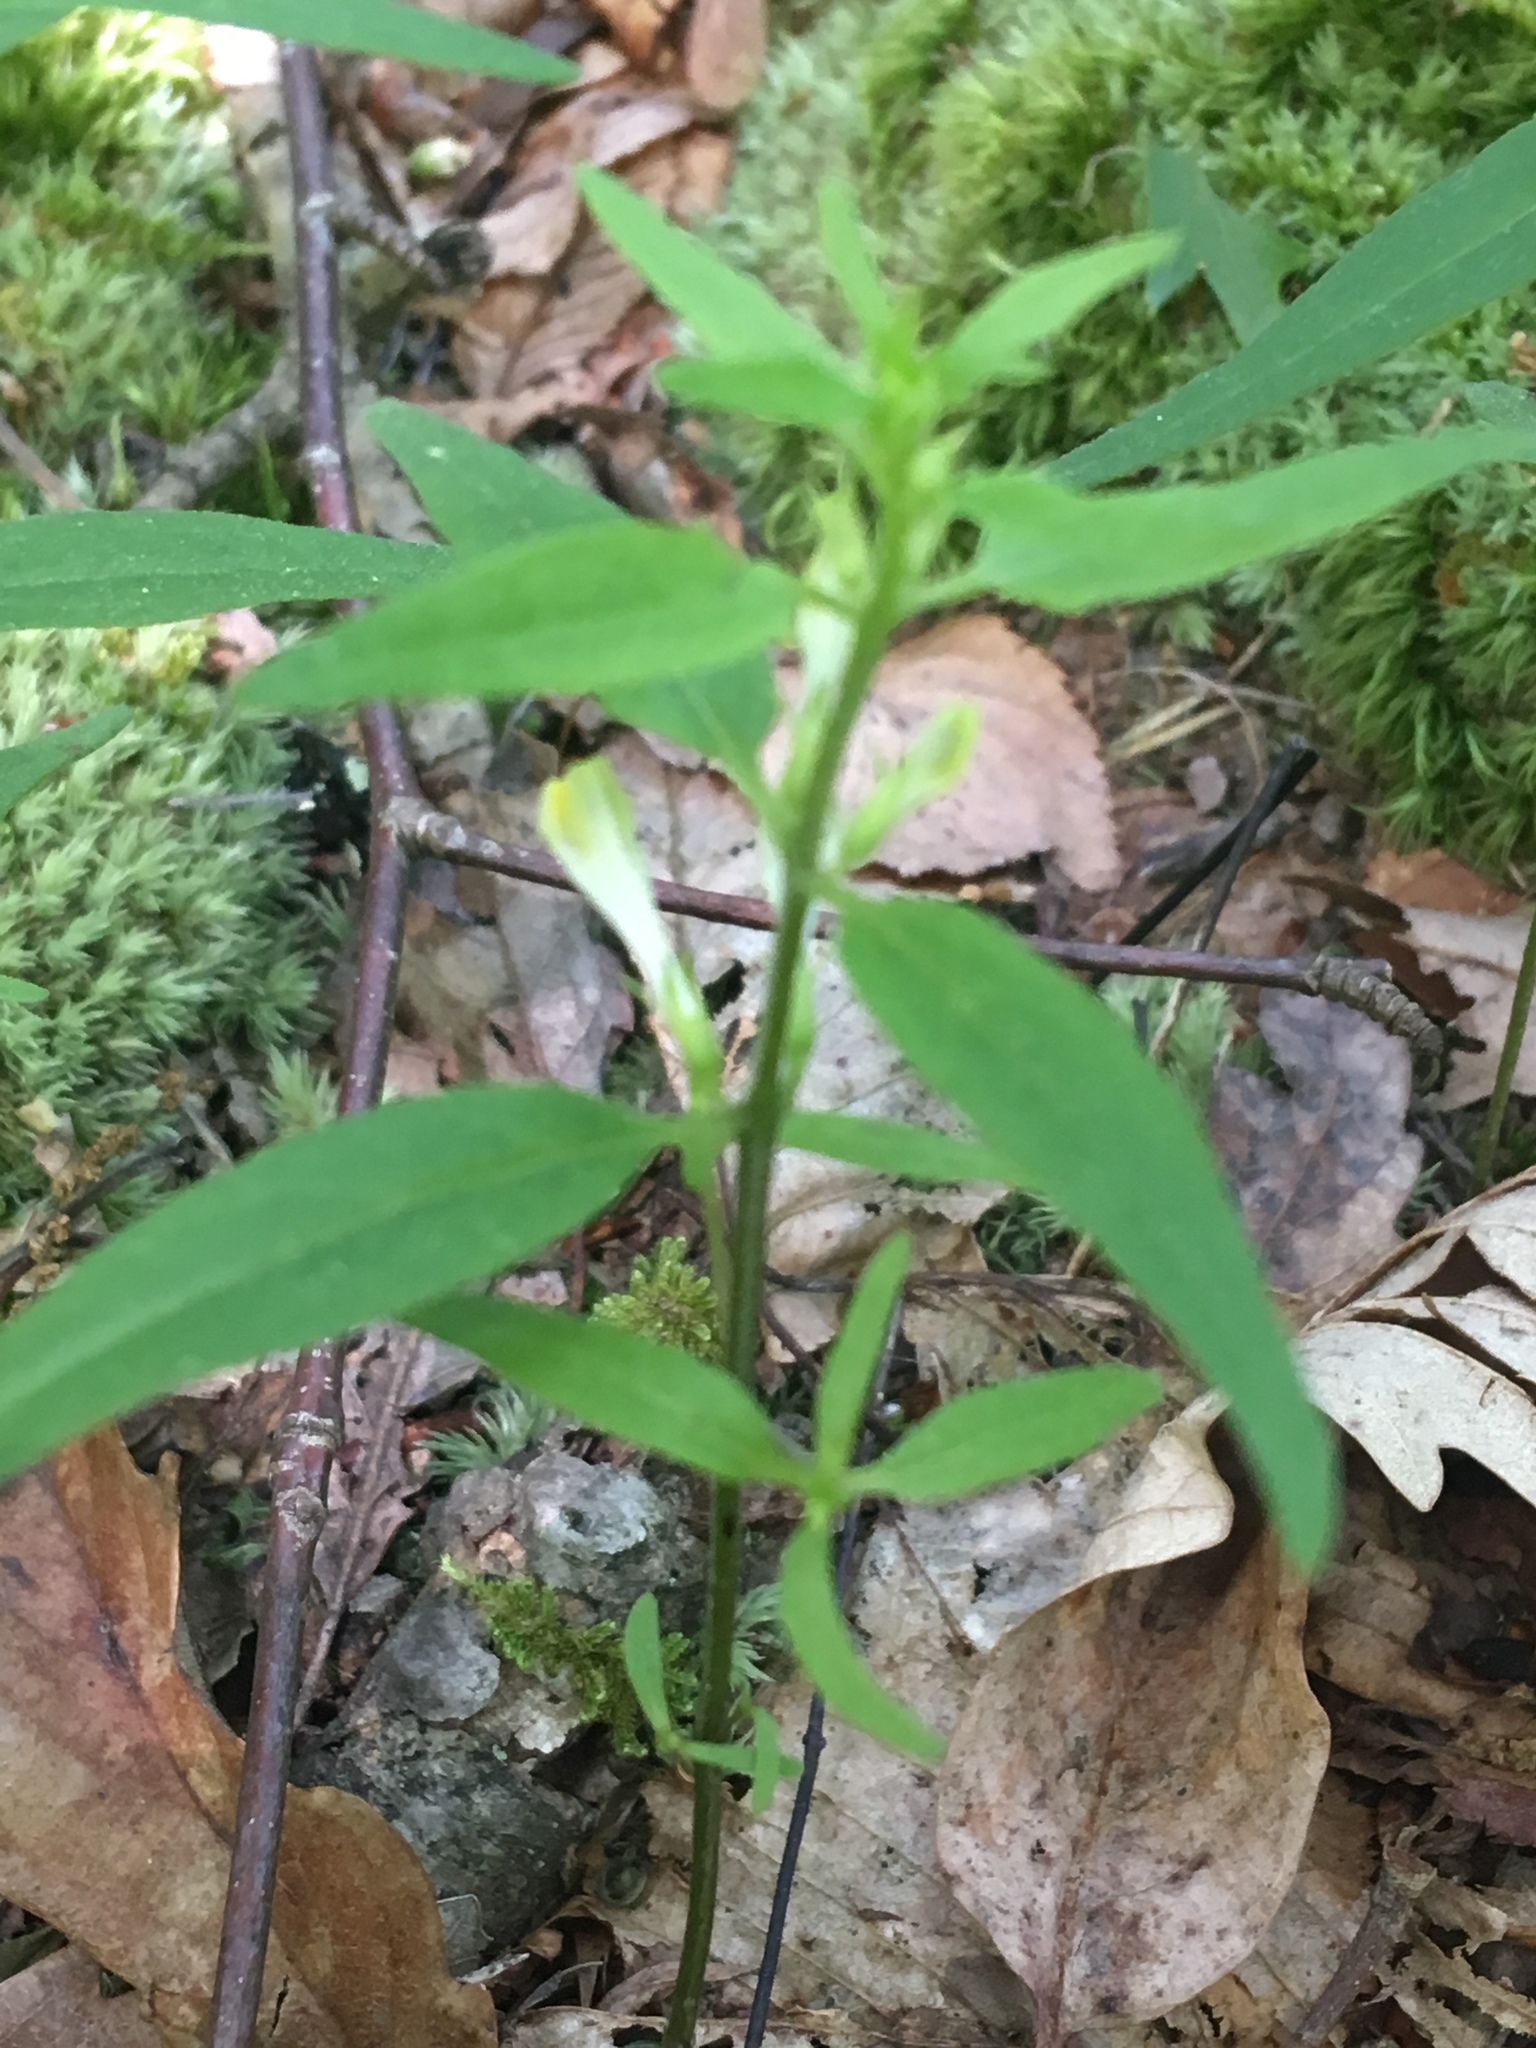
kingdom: Plantae
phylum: Tracheophyta
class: Magnoliopsida
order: Lamiales
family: Orobanchaceae
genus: Melampyrum
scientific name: Melampyrum lineare
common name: American cow-wheat
